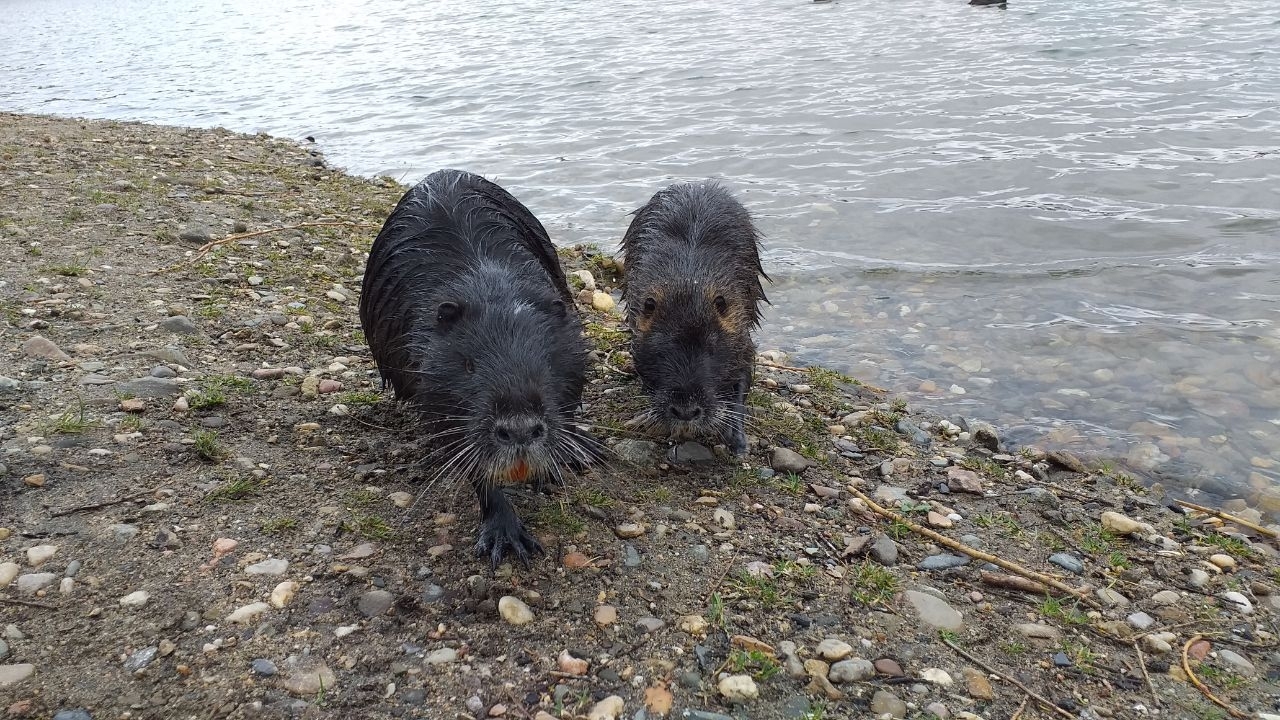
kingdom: Animalia
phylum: Chordata
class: Mammalia
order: Rodentia
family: Myocastoridae
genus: Myocastor
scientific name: Myocastor coypus
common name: Coypu
